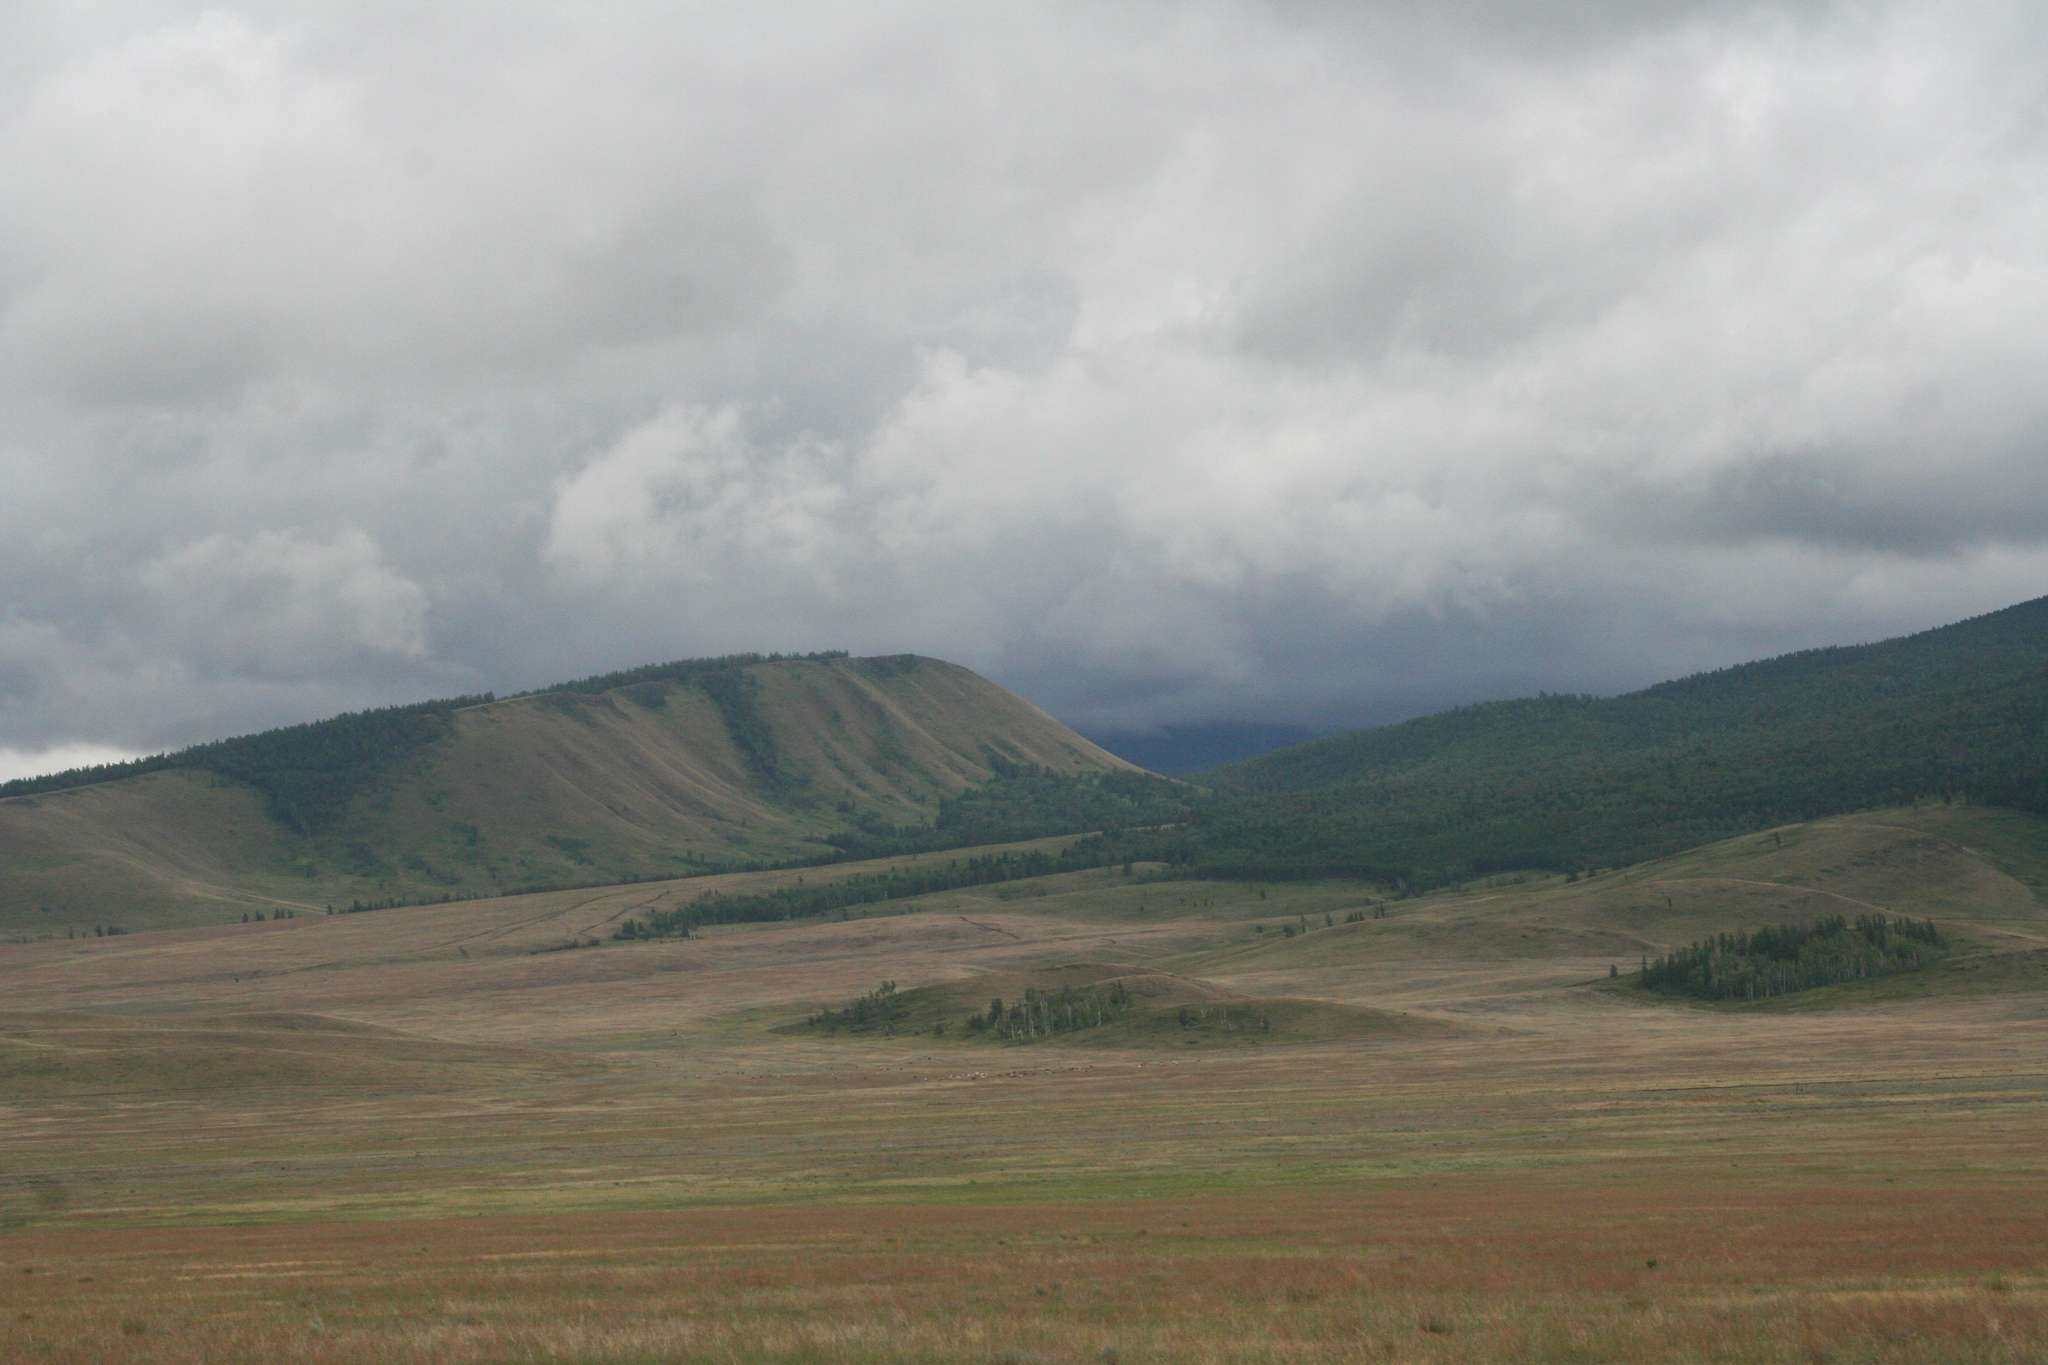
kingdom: Plantae
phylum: Tracheophyta
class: Pinopsida
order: Pinales
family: Pinaceae
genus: Larix
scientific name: Larix sibirica
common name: Siberian larch
